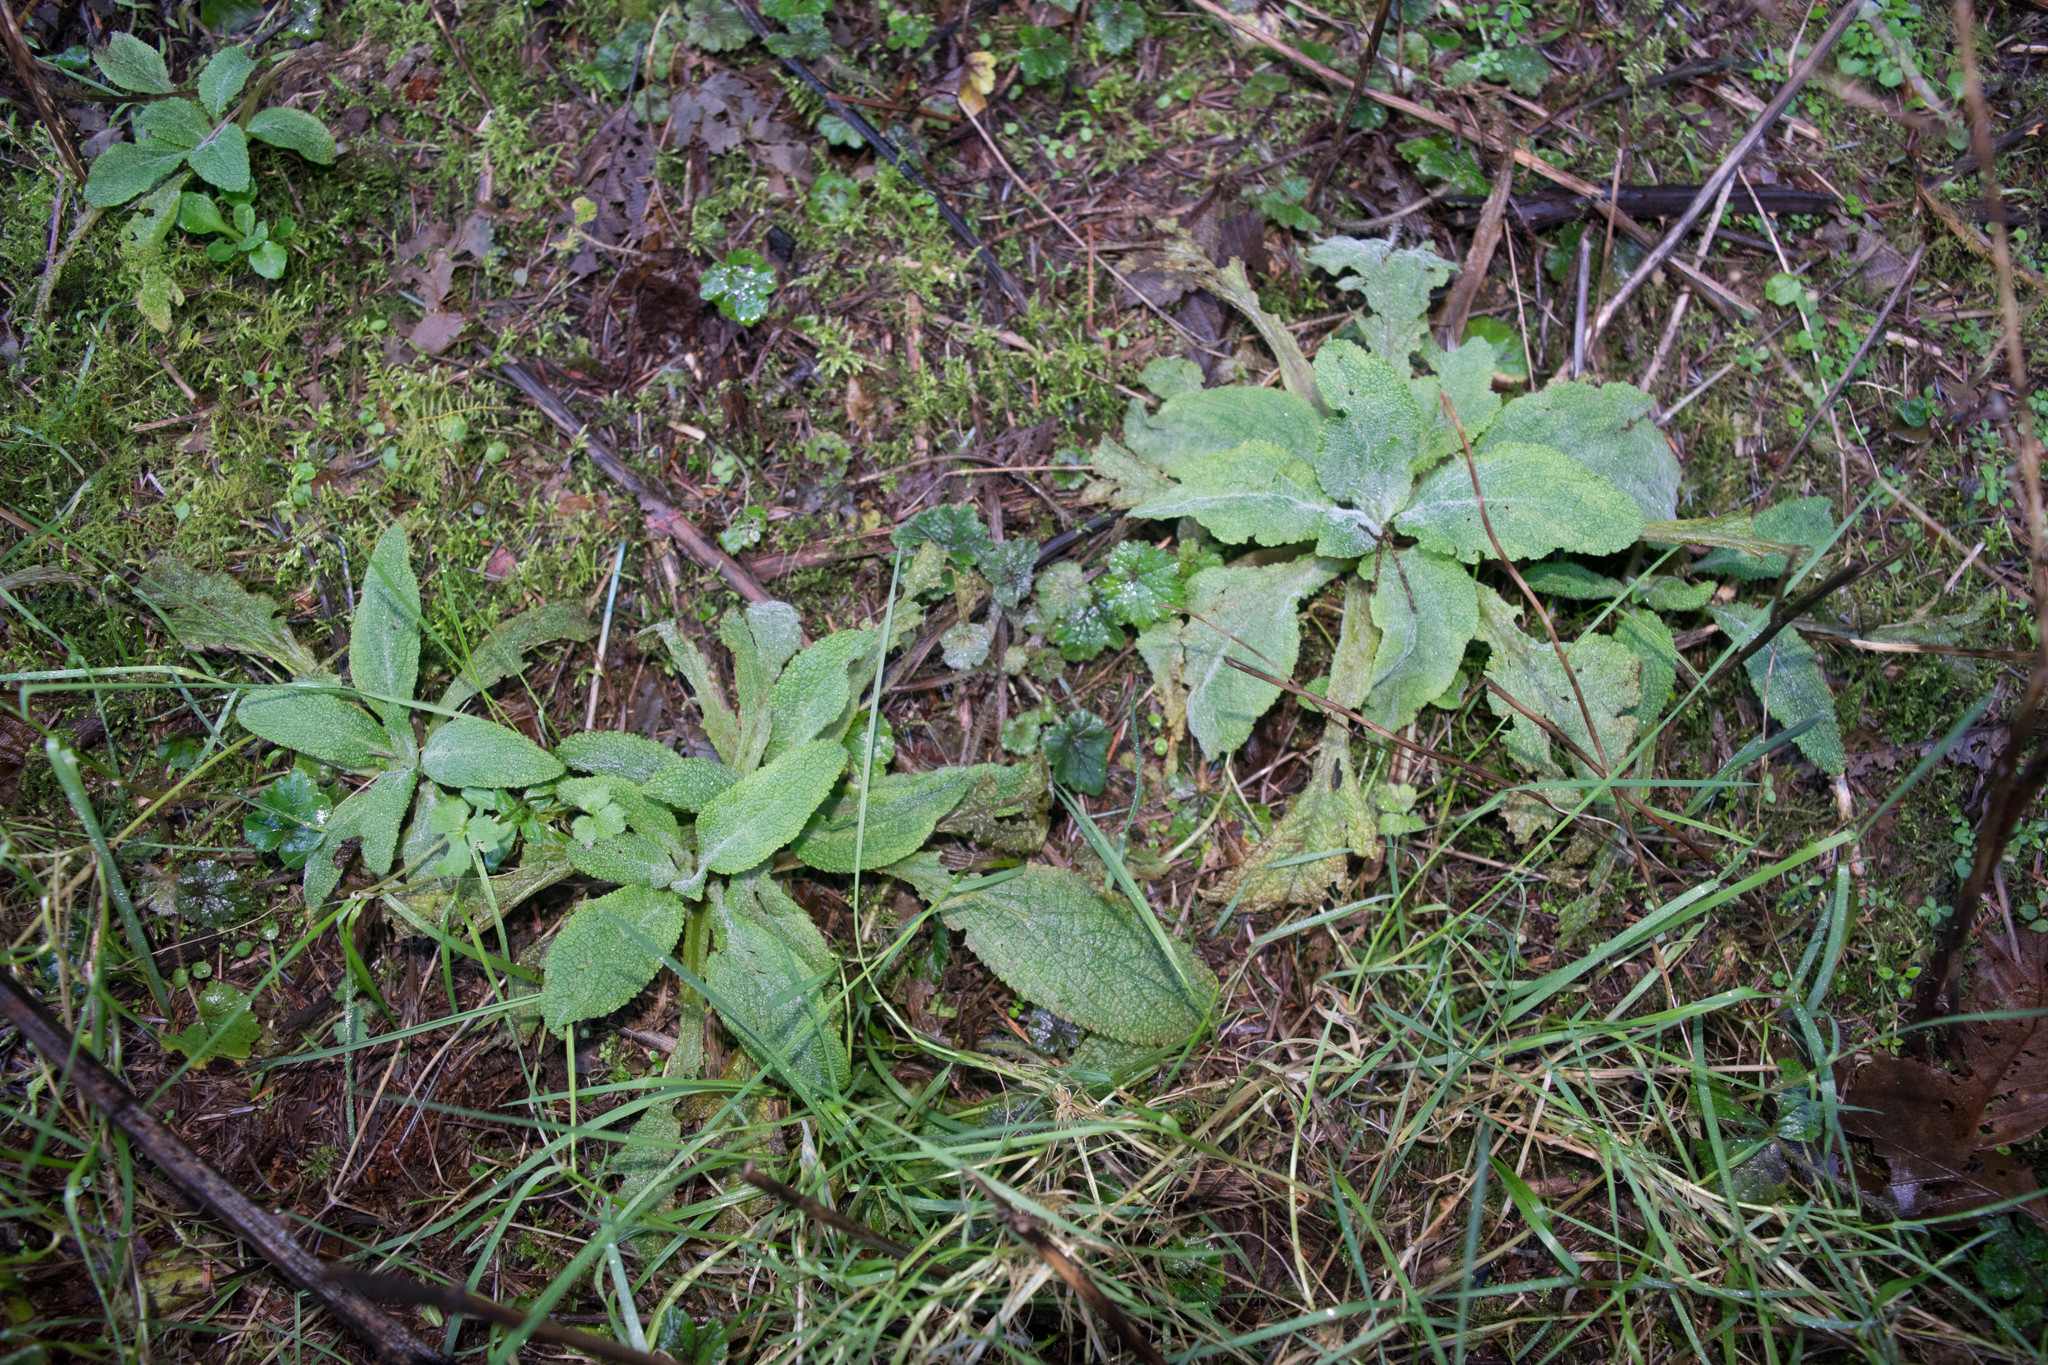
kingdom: Plantae
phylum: Tracheophyta
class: Magnoliopsida
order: Lamiales
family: Plantaginaceae
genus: Digitalis
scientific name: Digitalis purpurea
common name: Foxglove
